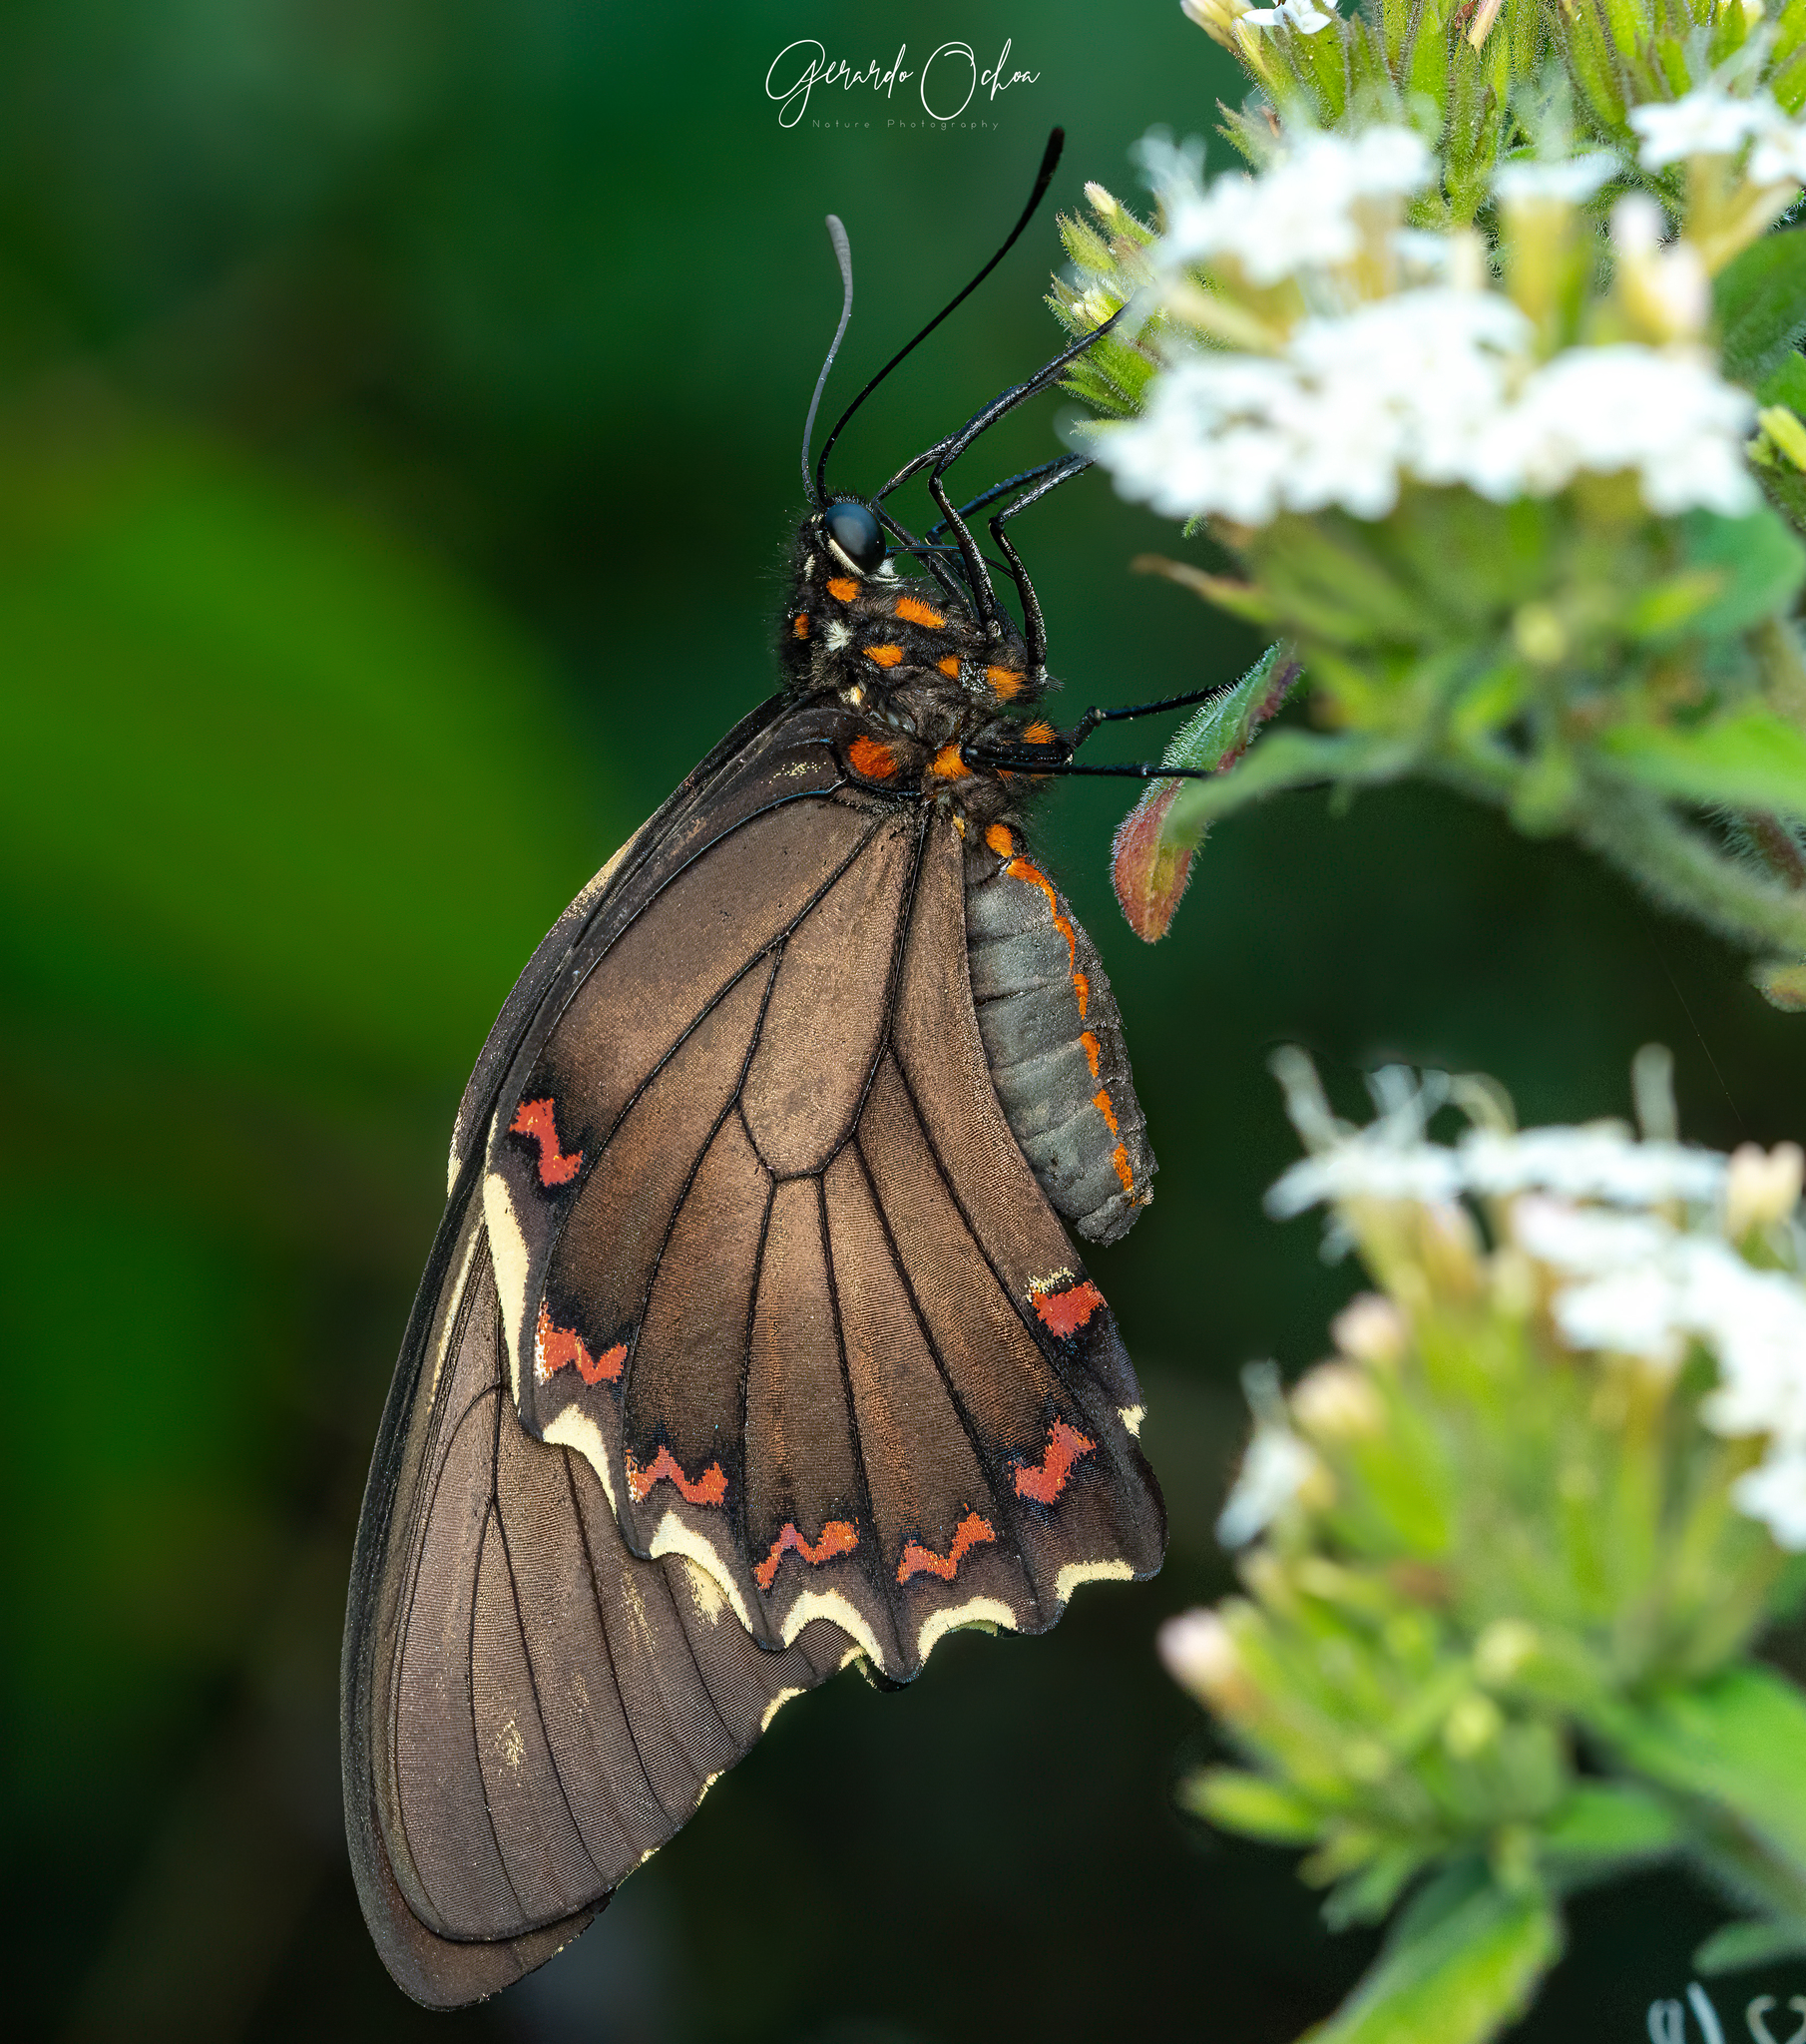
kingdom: Animalia
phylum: Arthropoda
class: Insecta
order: Lepidoptera
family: Papilionidae
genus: Battus
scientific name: Battus polydamas
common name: Polydamas swallowtail
